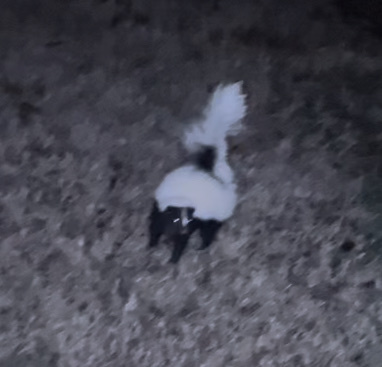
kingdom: Animalia
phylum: Chordata
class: Mammalia
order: Carnivora
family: Mephitidae
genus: Mephitis
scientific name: Mephitis mephitis
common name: Striped skunk
